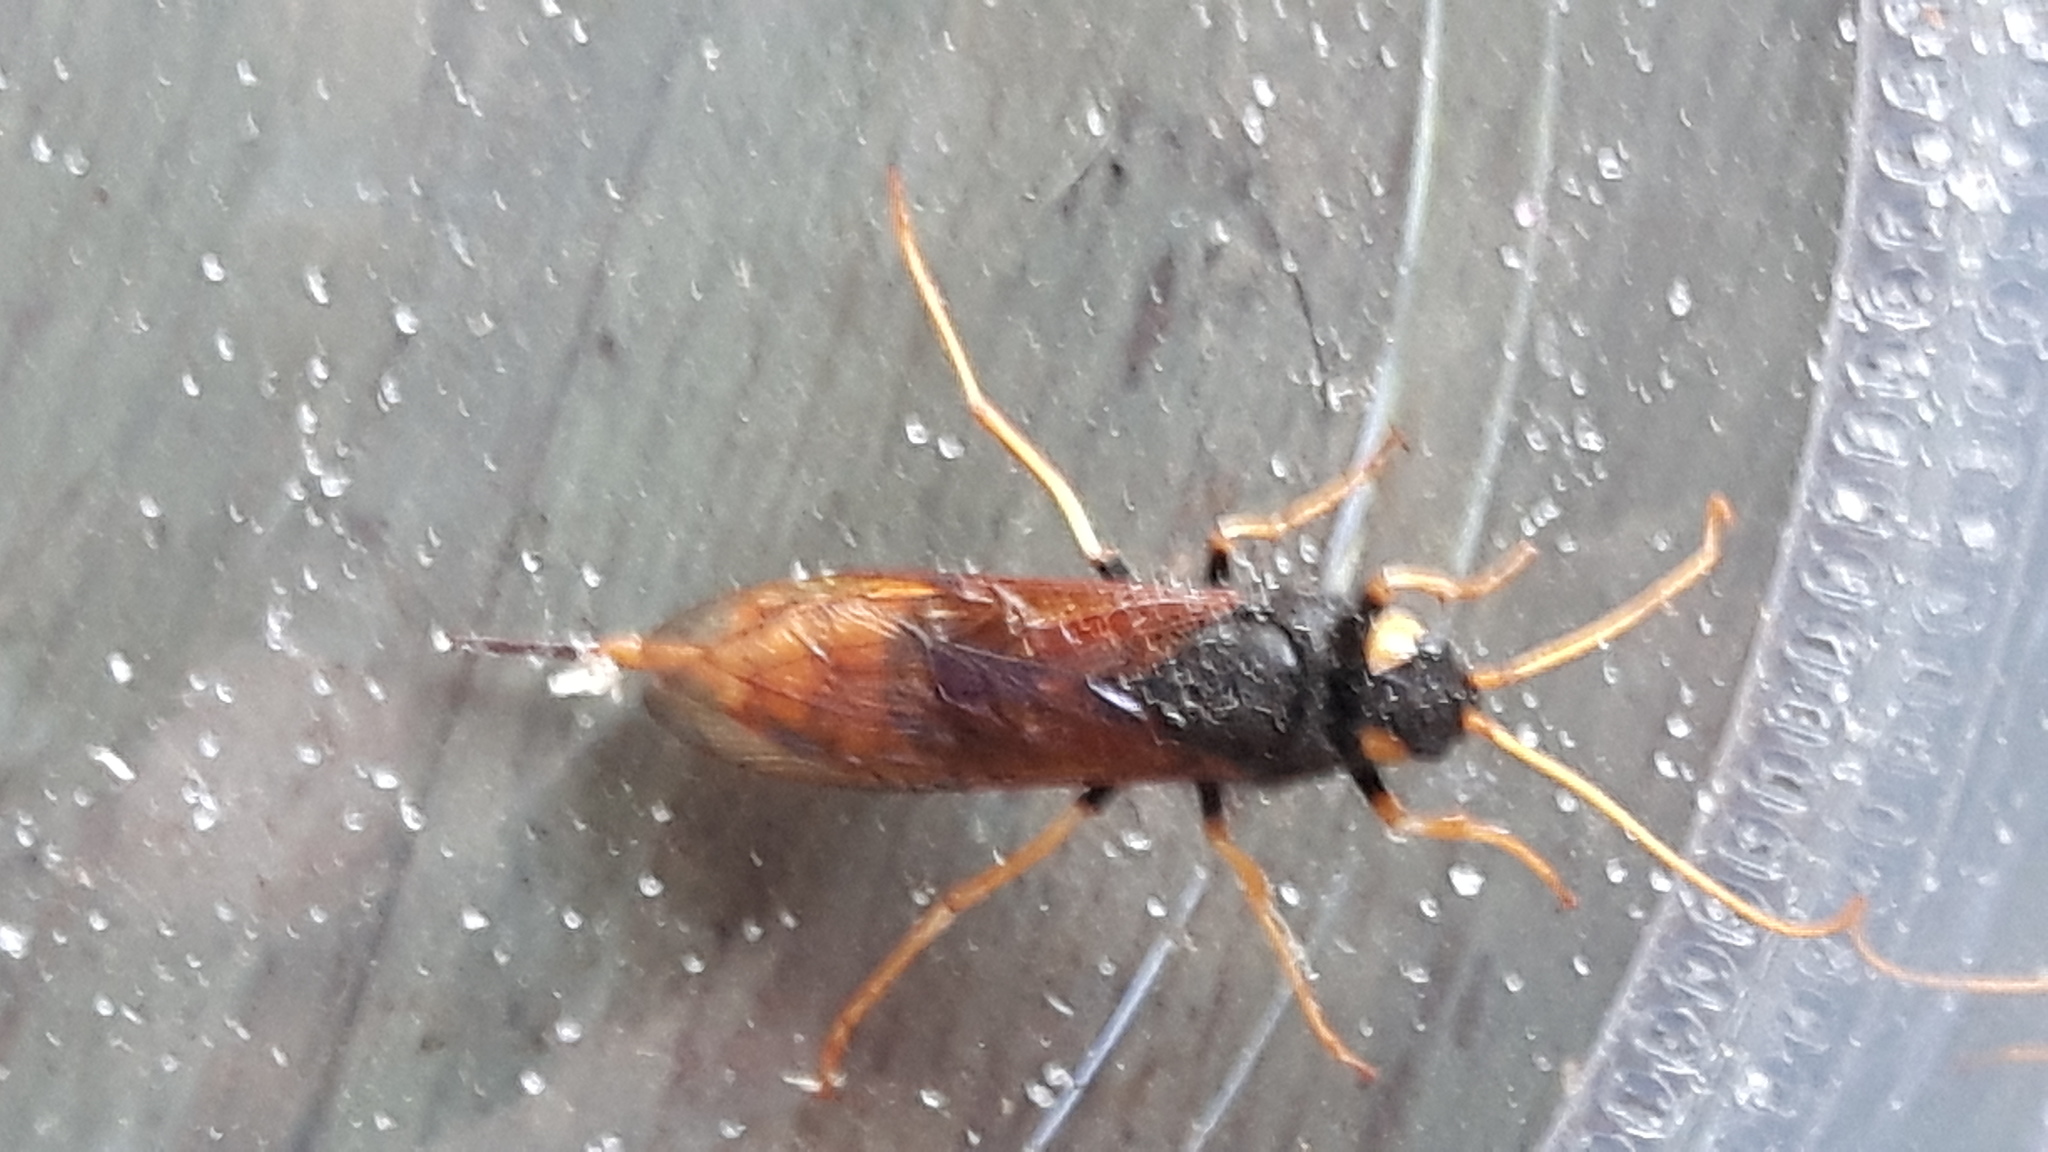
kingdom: Animalia
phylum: Arthropoda
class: Insecta
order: Hymenoptera
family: Siricidae
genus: Urocerus
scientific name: Urocerus gigas
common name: Giant woodwasp
